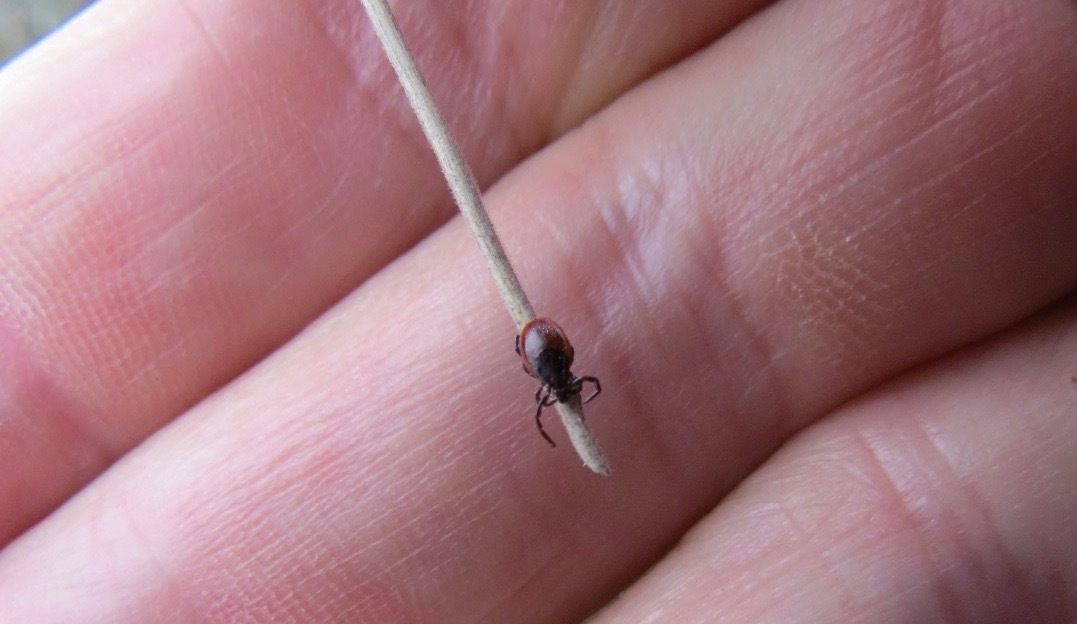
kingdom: Animalia
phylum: Arthropoda
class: Arachnida
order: Ixodida
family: Ixodidae
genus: Ixodes
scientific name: Ixodes pacificus
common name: California black-legged tick
